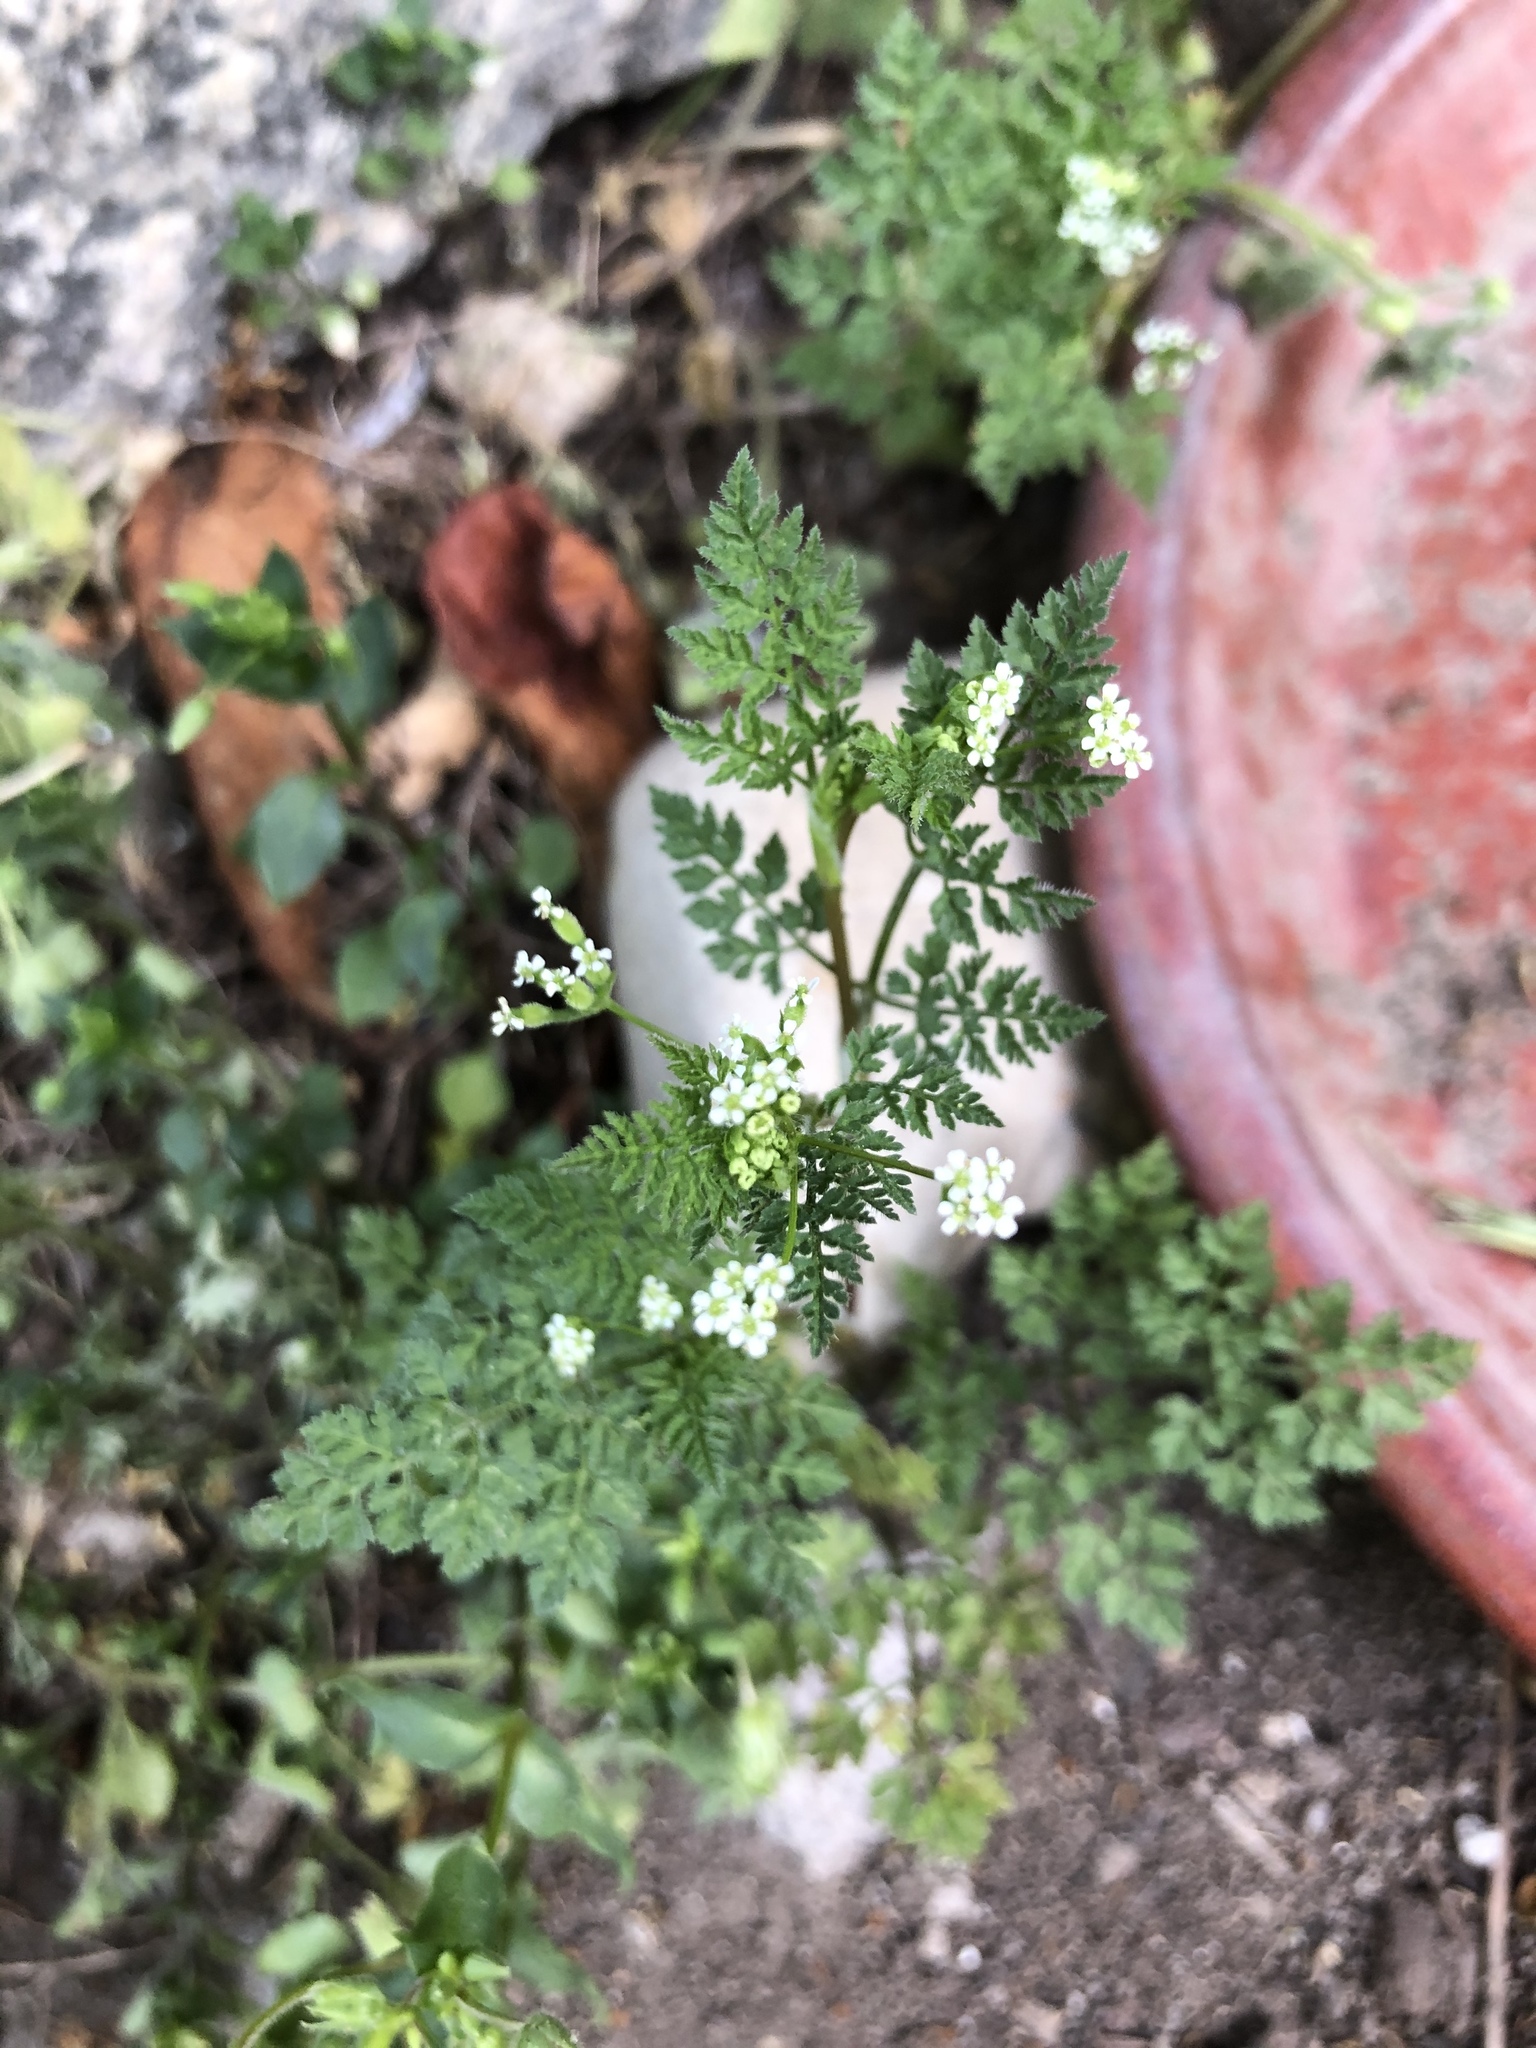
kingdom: Plantae
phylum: Tracheophyta
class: Magnoliopsida
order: Apiales
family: Apiaceae
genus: Anthriscus
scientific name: Anthriscus caucalis
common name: Bur chervil
